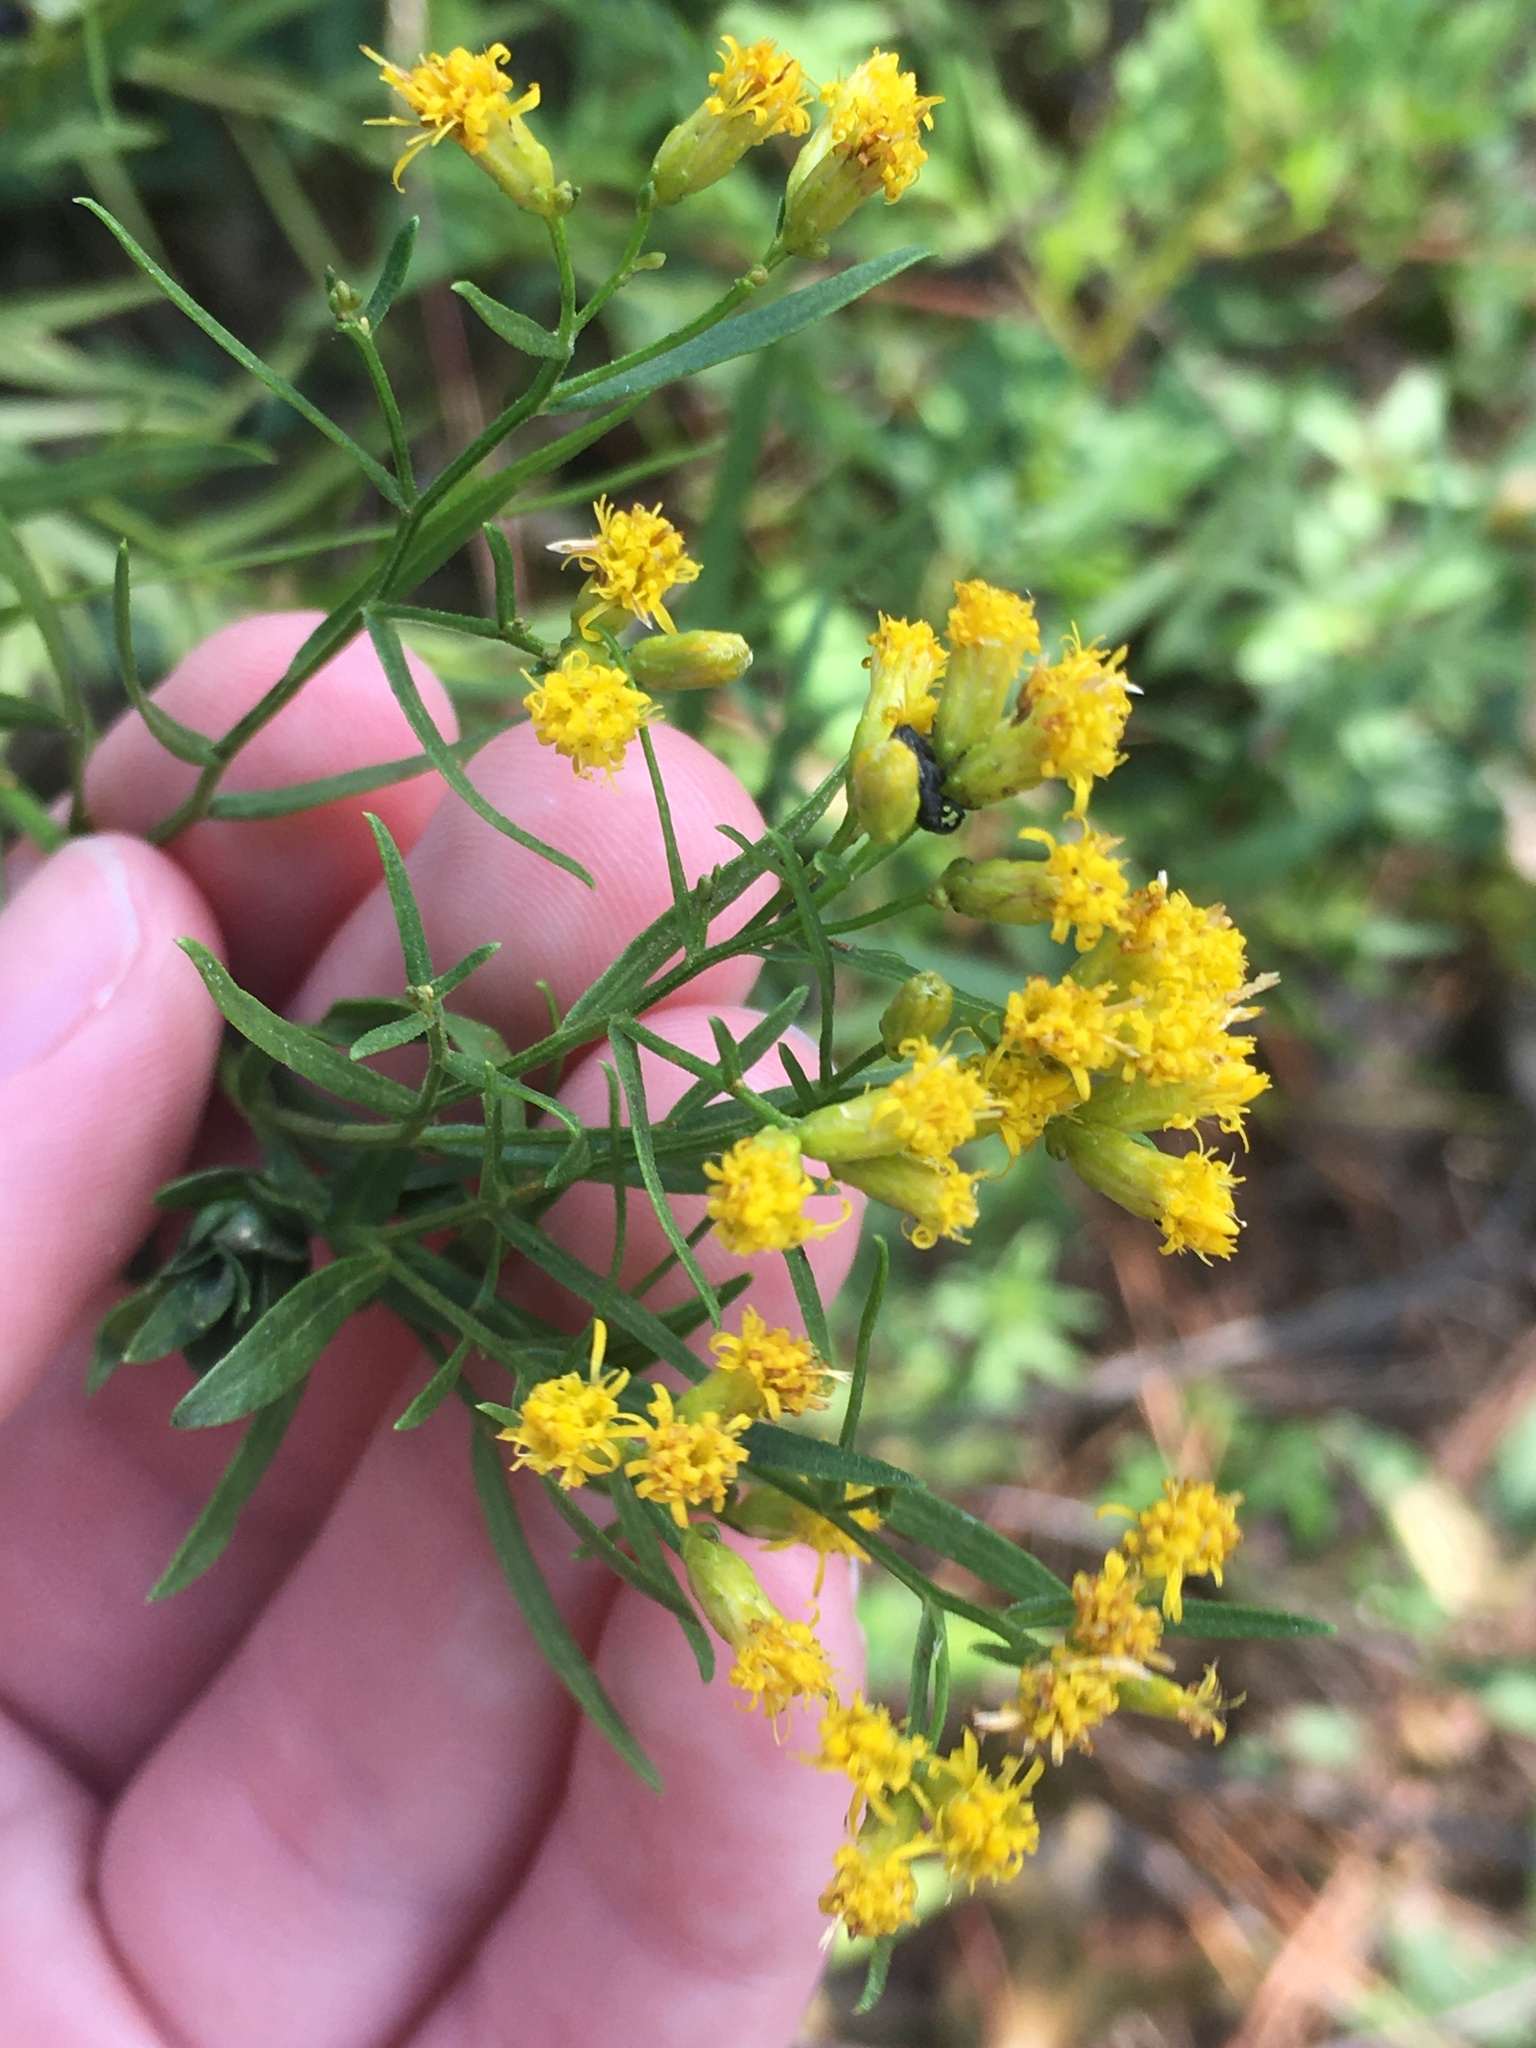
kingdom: Plantae
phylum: Tracheophyta
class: Magnoliopsida
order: Asterales
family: Asteraceae
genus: Euthamia
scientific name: Euthamia weakleyi
